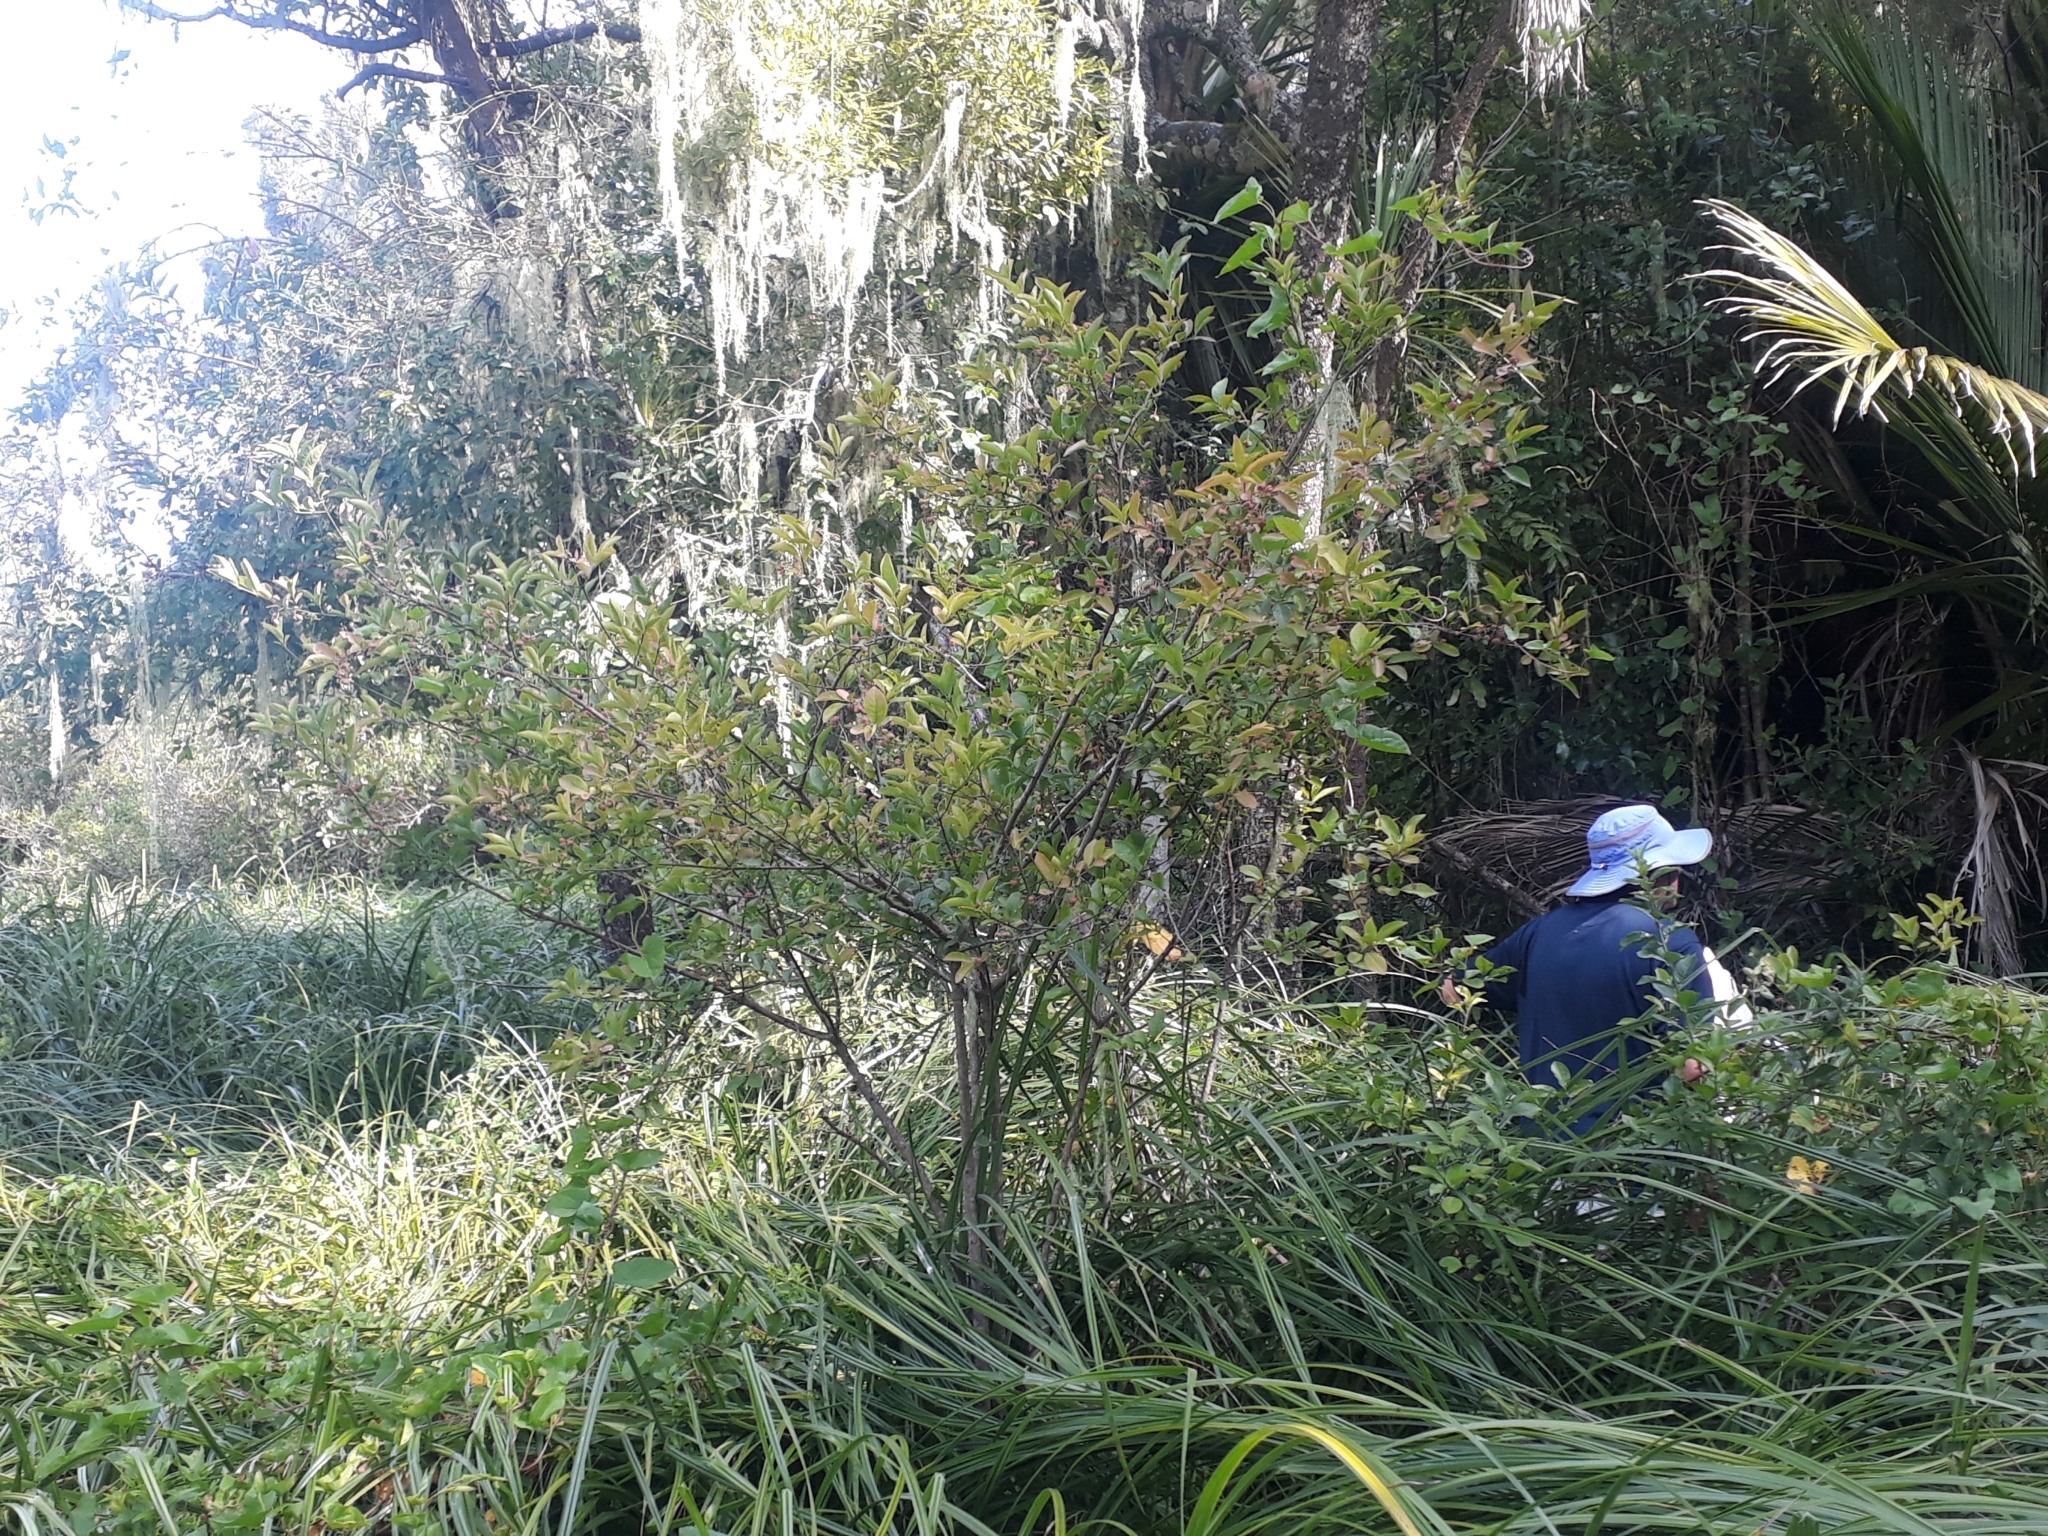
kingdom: Plantae
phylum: Tracheophyta
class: Magnoliopsida
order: Celastrales
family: Celastraceae
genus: Euonymus
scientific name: Euonymus europaeus
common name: Spindle
